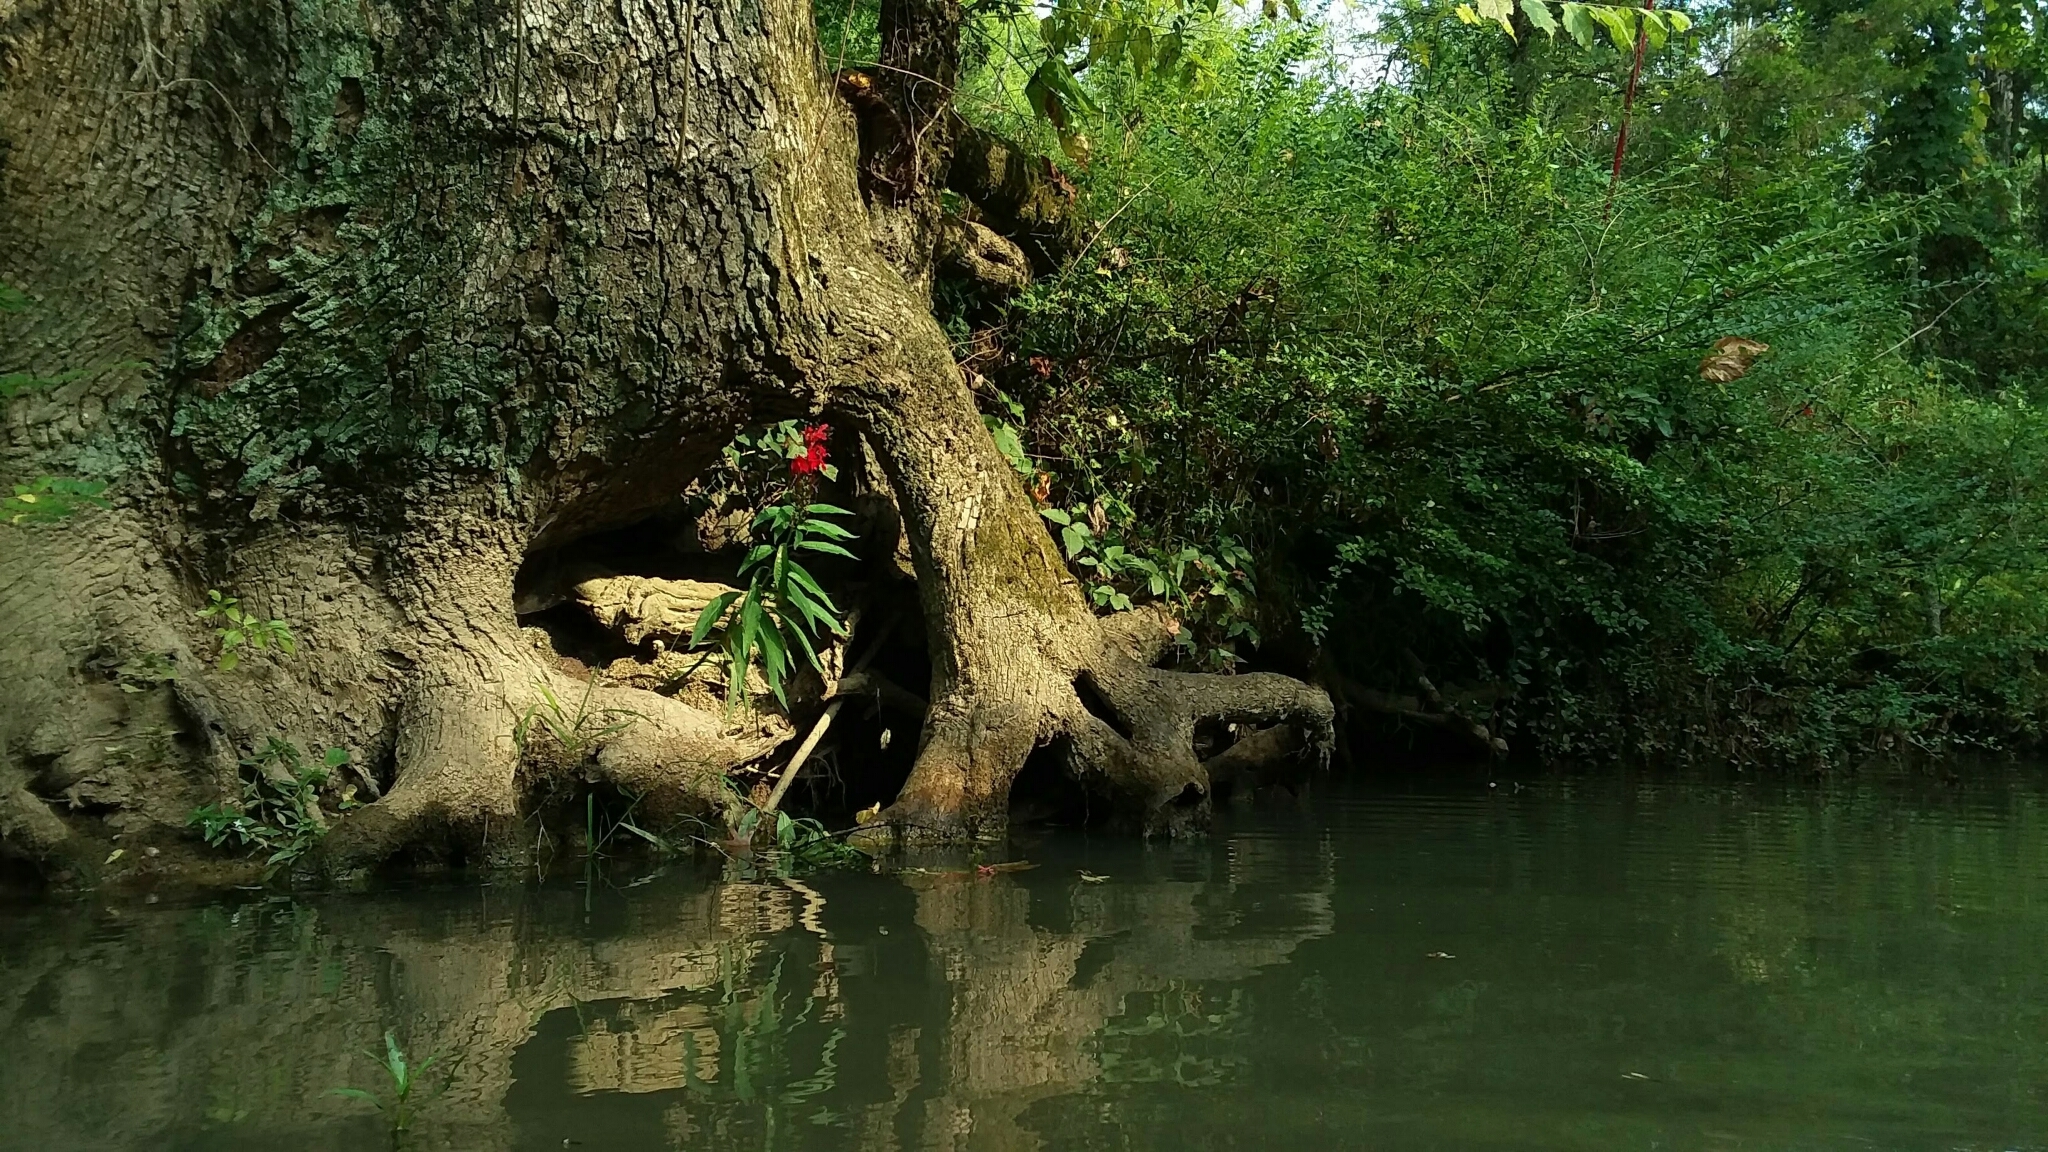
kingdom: Plantae
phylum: Tracheophyta
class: Magnoliopsida
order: Asterales
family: Campanulaceae
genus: Lobelia
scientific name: Lobelia cardinalis
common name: Cardinal flower
